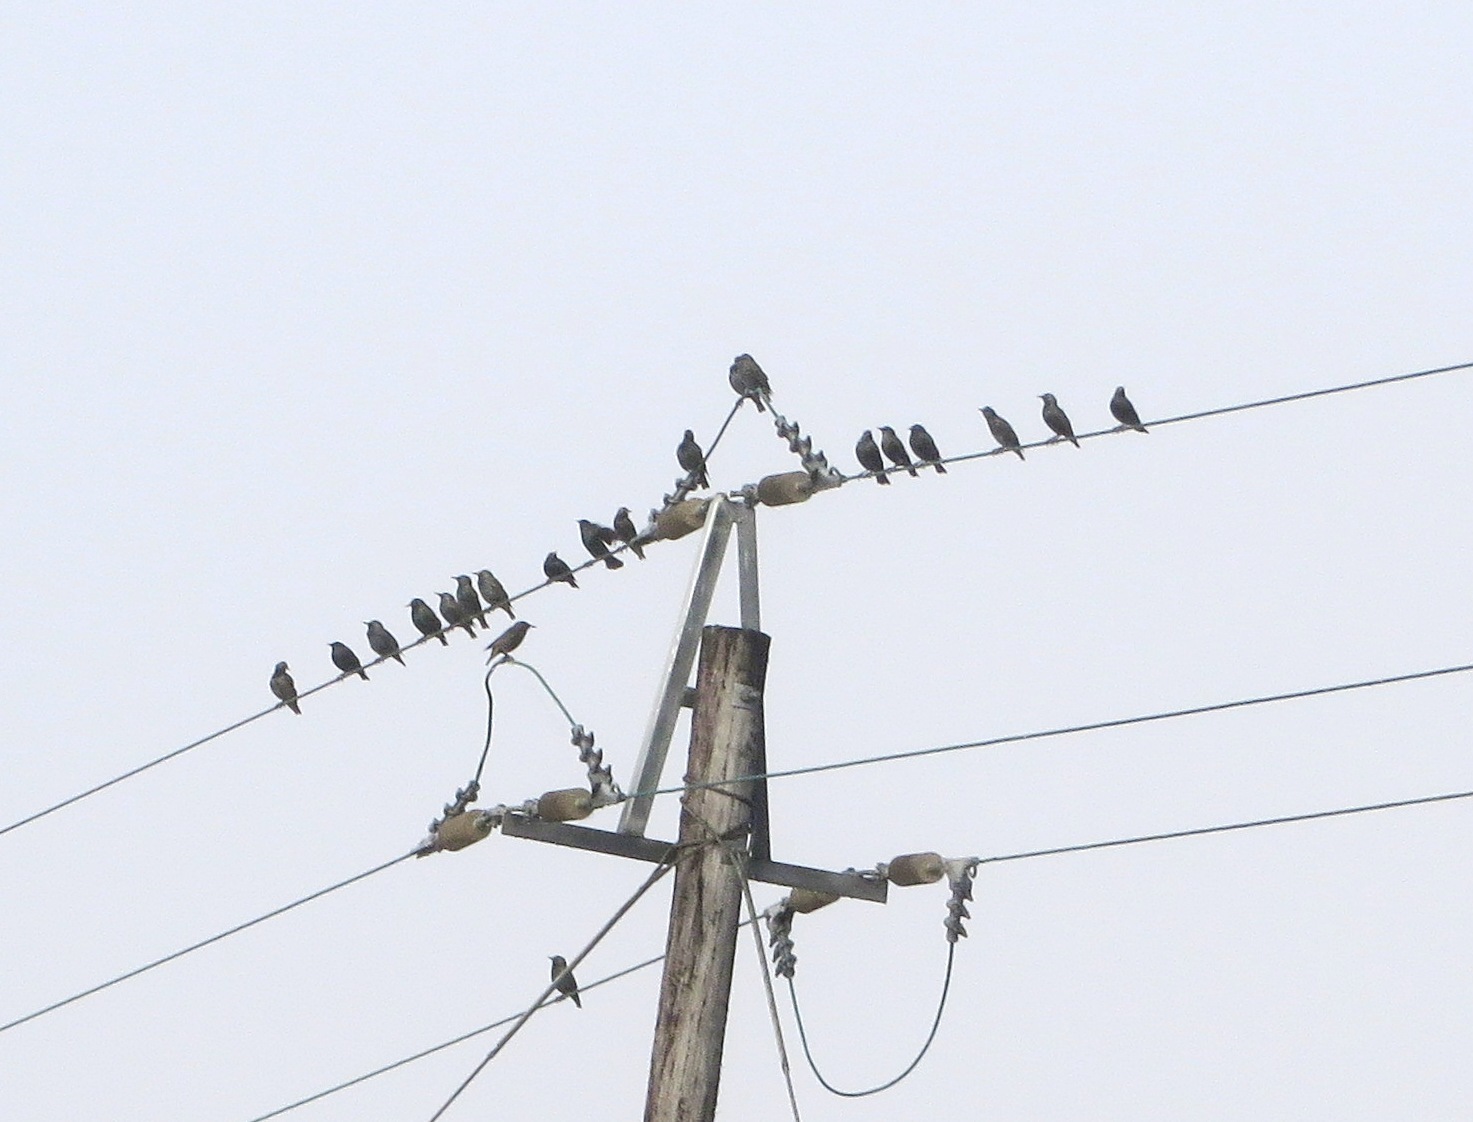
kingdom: Animalia
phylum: Chordata
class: Aves
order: Passeriformes
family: Sturnidae
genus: Sturnus
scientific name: Sturnus vulgaris
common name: Common starling
